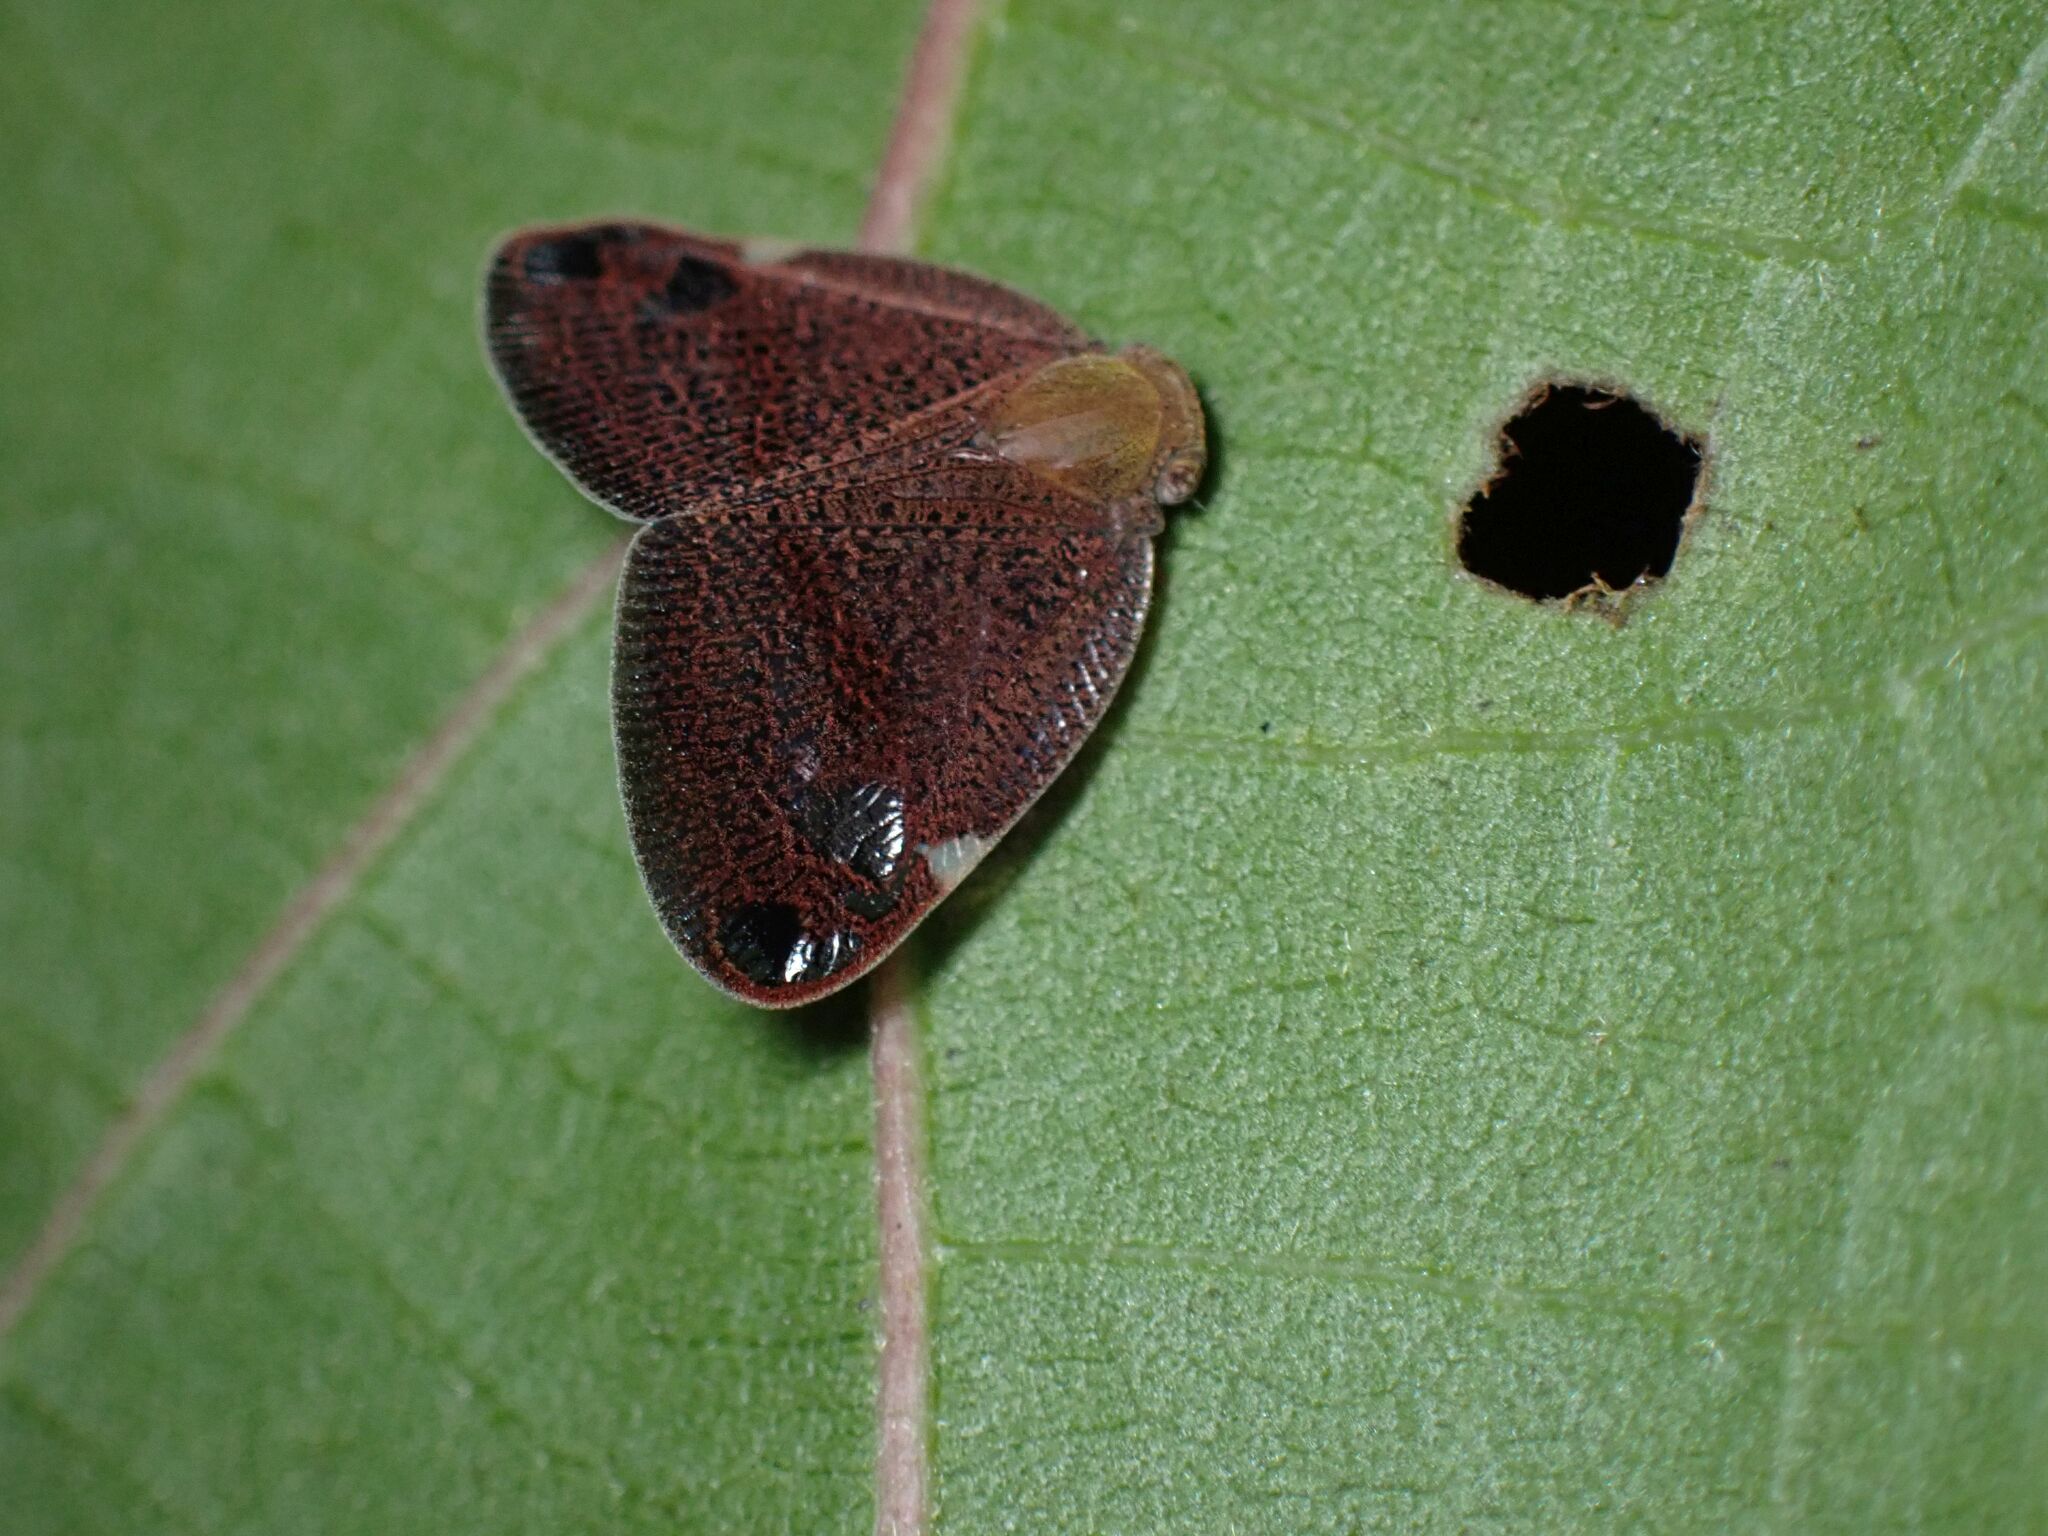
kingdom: Animalia
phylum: Arthropoda
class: Insecta
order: Hemiptera
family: Ricaniidae
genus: Parapiromis
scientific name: Parapiromis translucida
